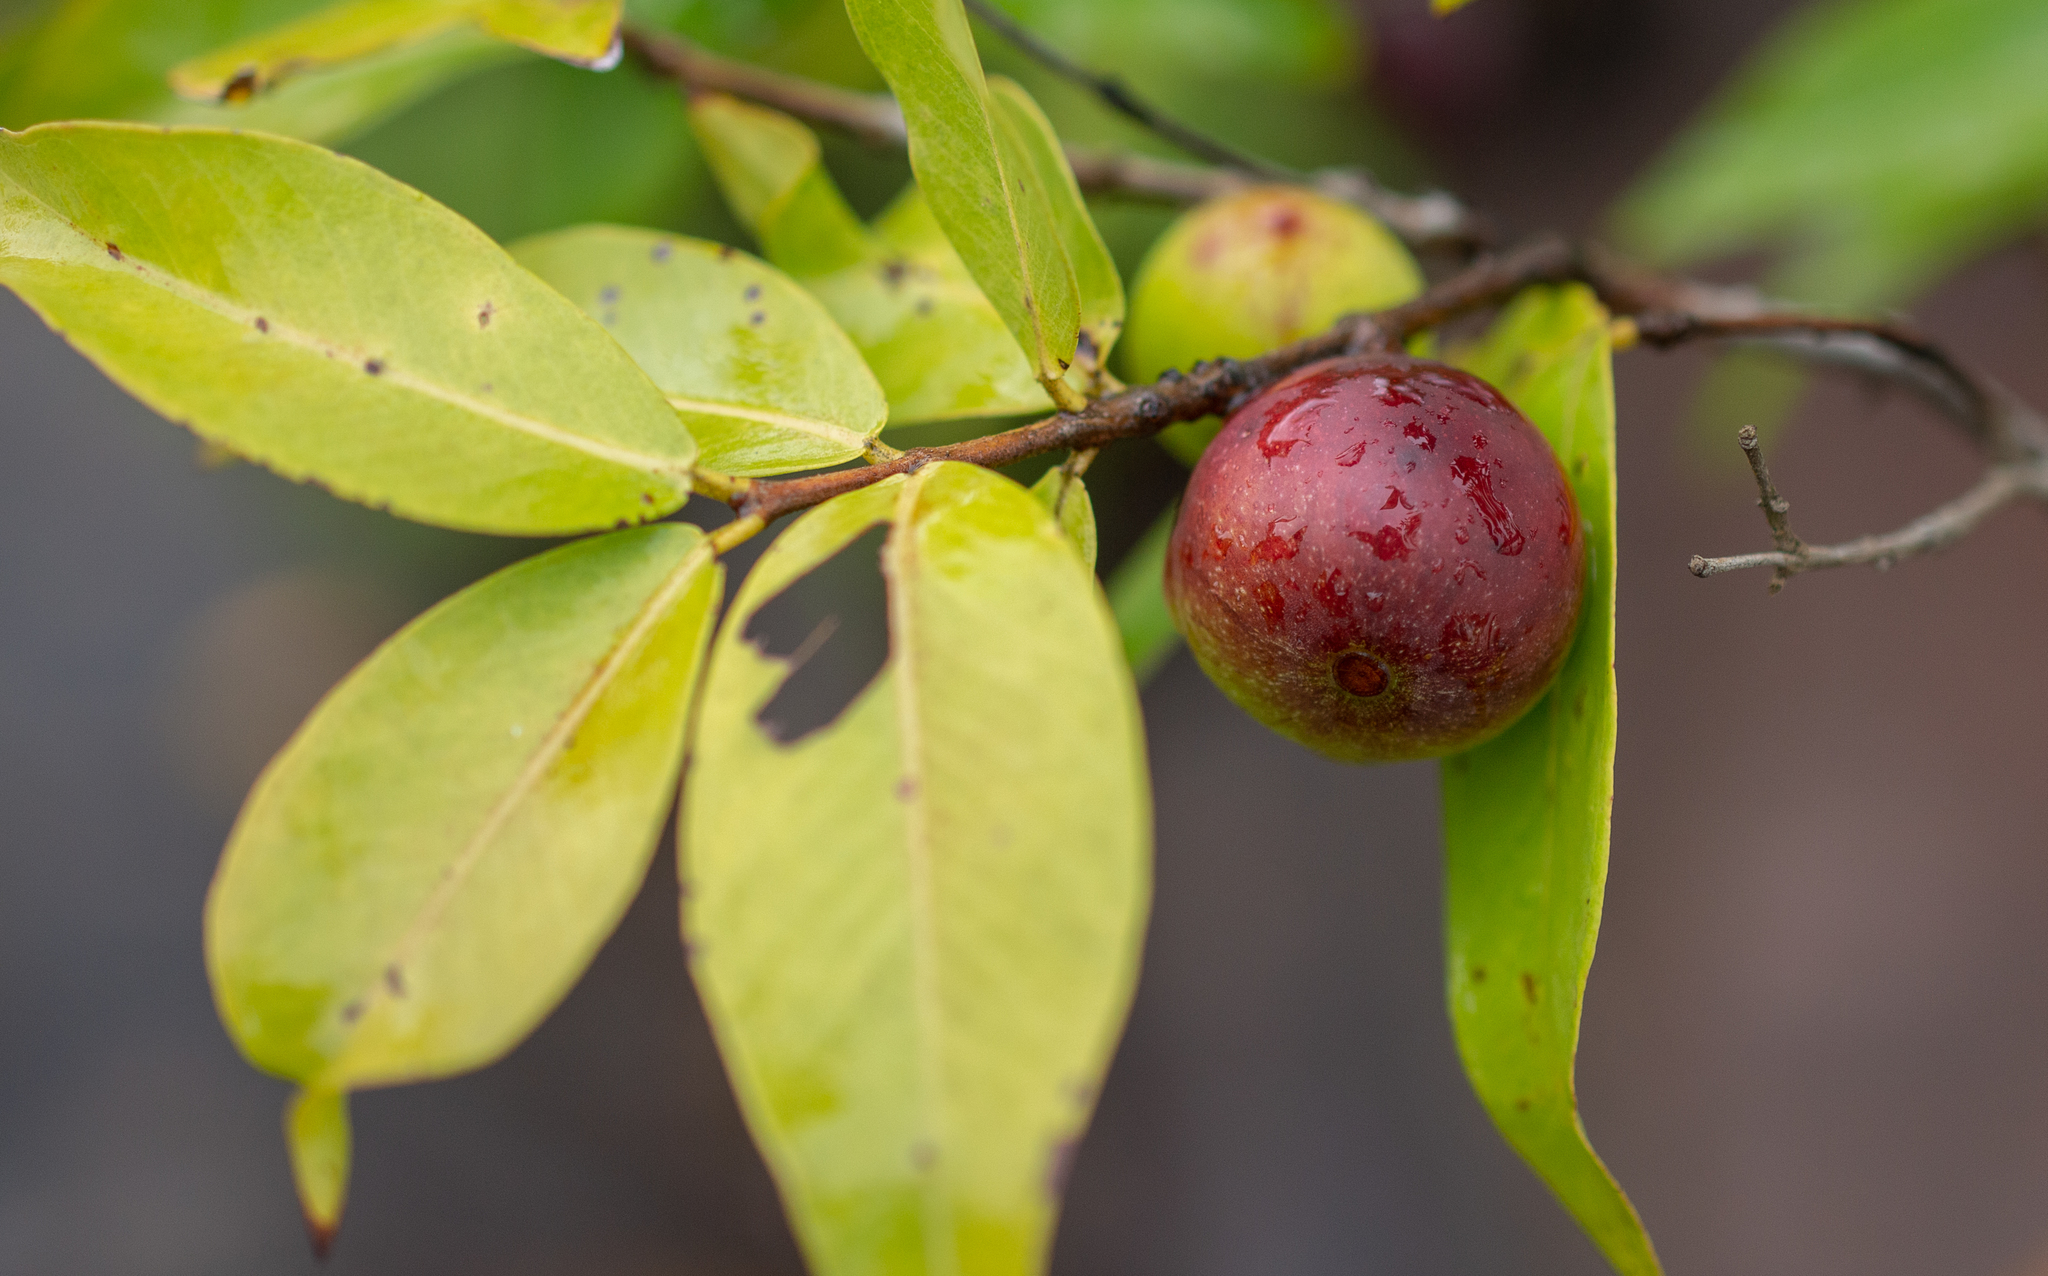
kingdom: Plantae
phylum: Tracheophyta
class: Magnoliopsida
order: Myrtales
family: Myrtaceae
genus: Myrciaria
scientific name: Myrciaria dubia
